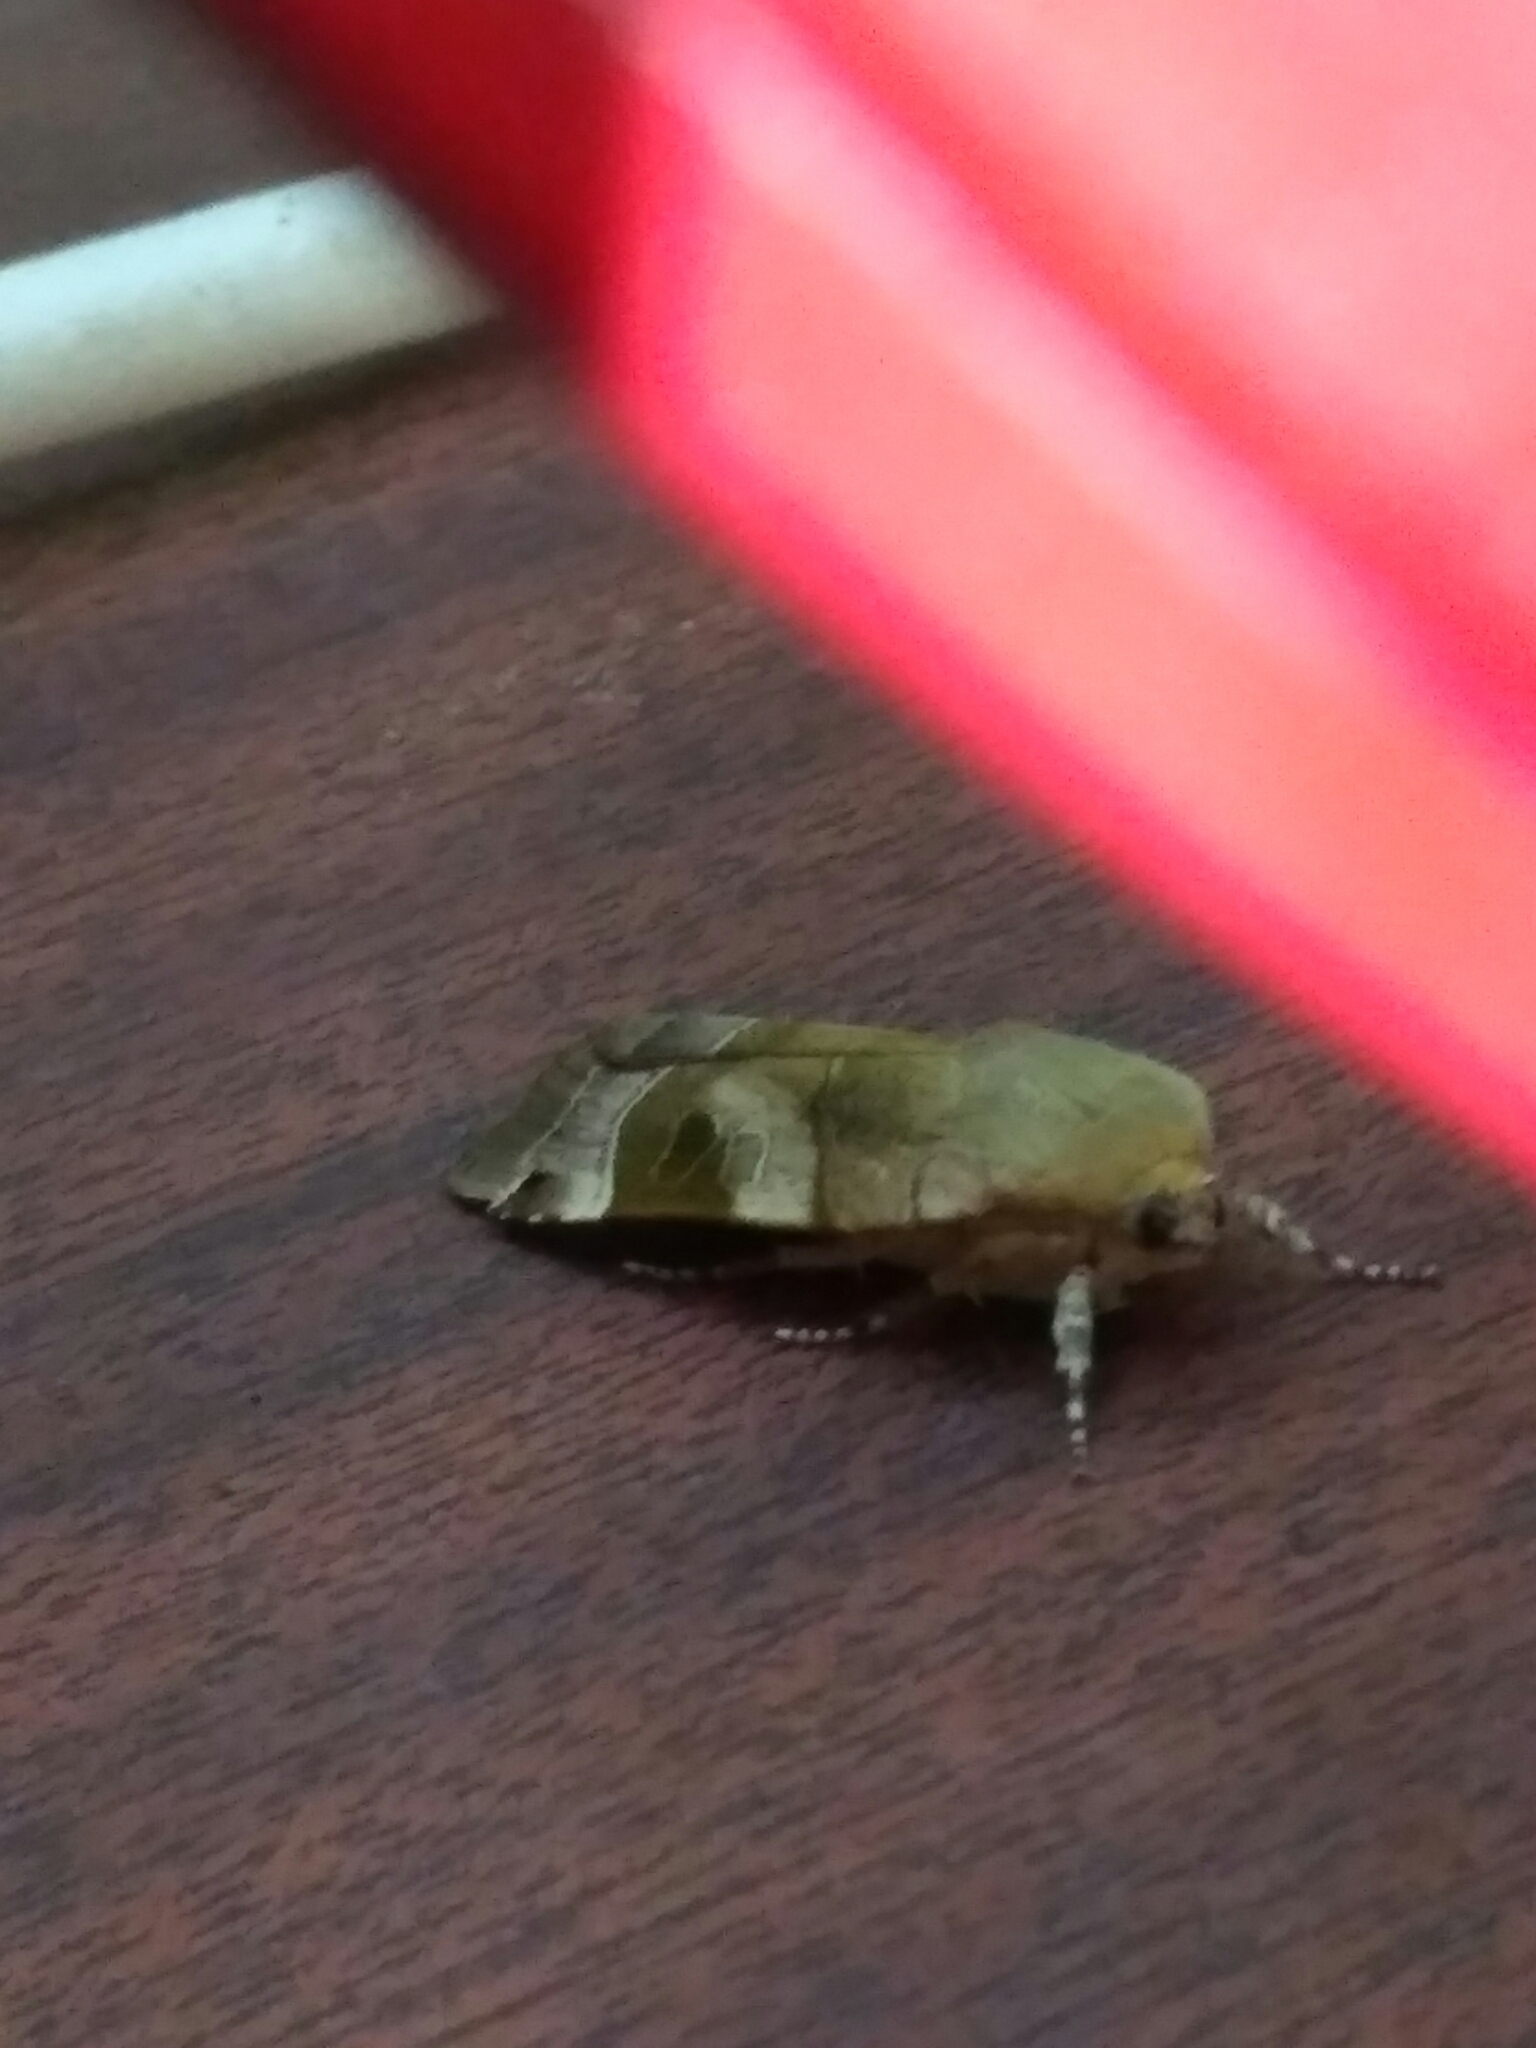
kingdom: Animalia
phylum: Arthropoda
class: Insecta
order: Lepidoptera
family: Noctuidae
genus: Noctua
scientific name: Noctua fimbriata
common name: Broad-bordered yellow underwing
